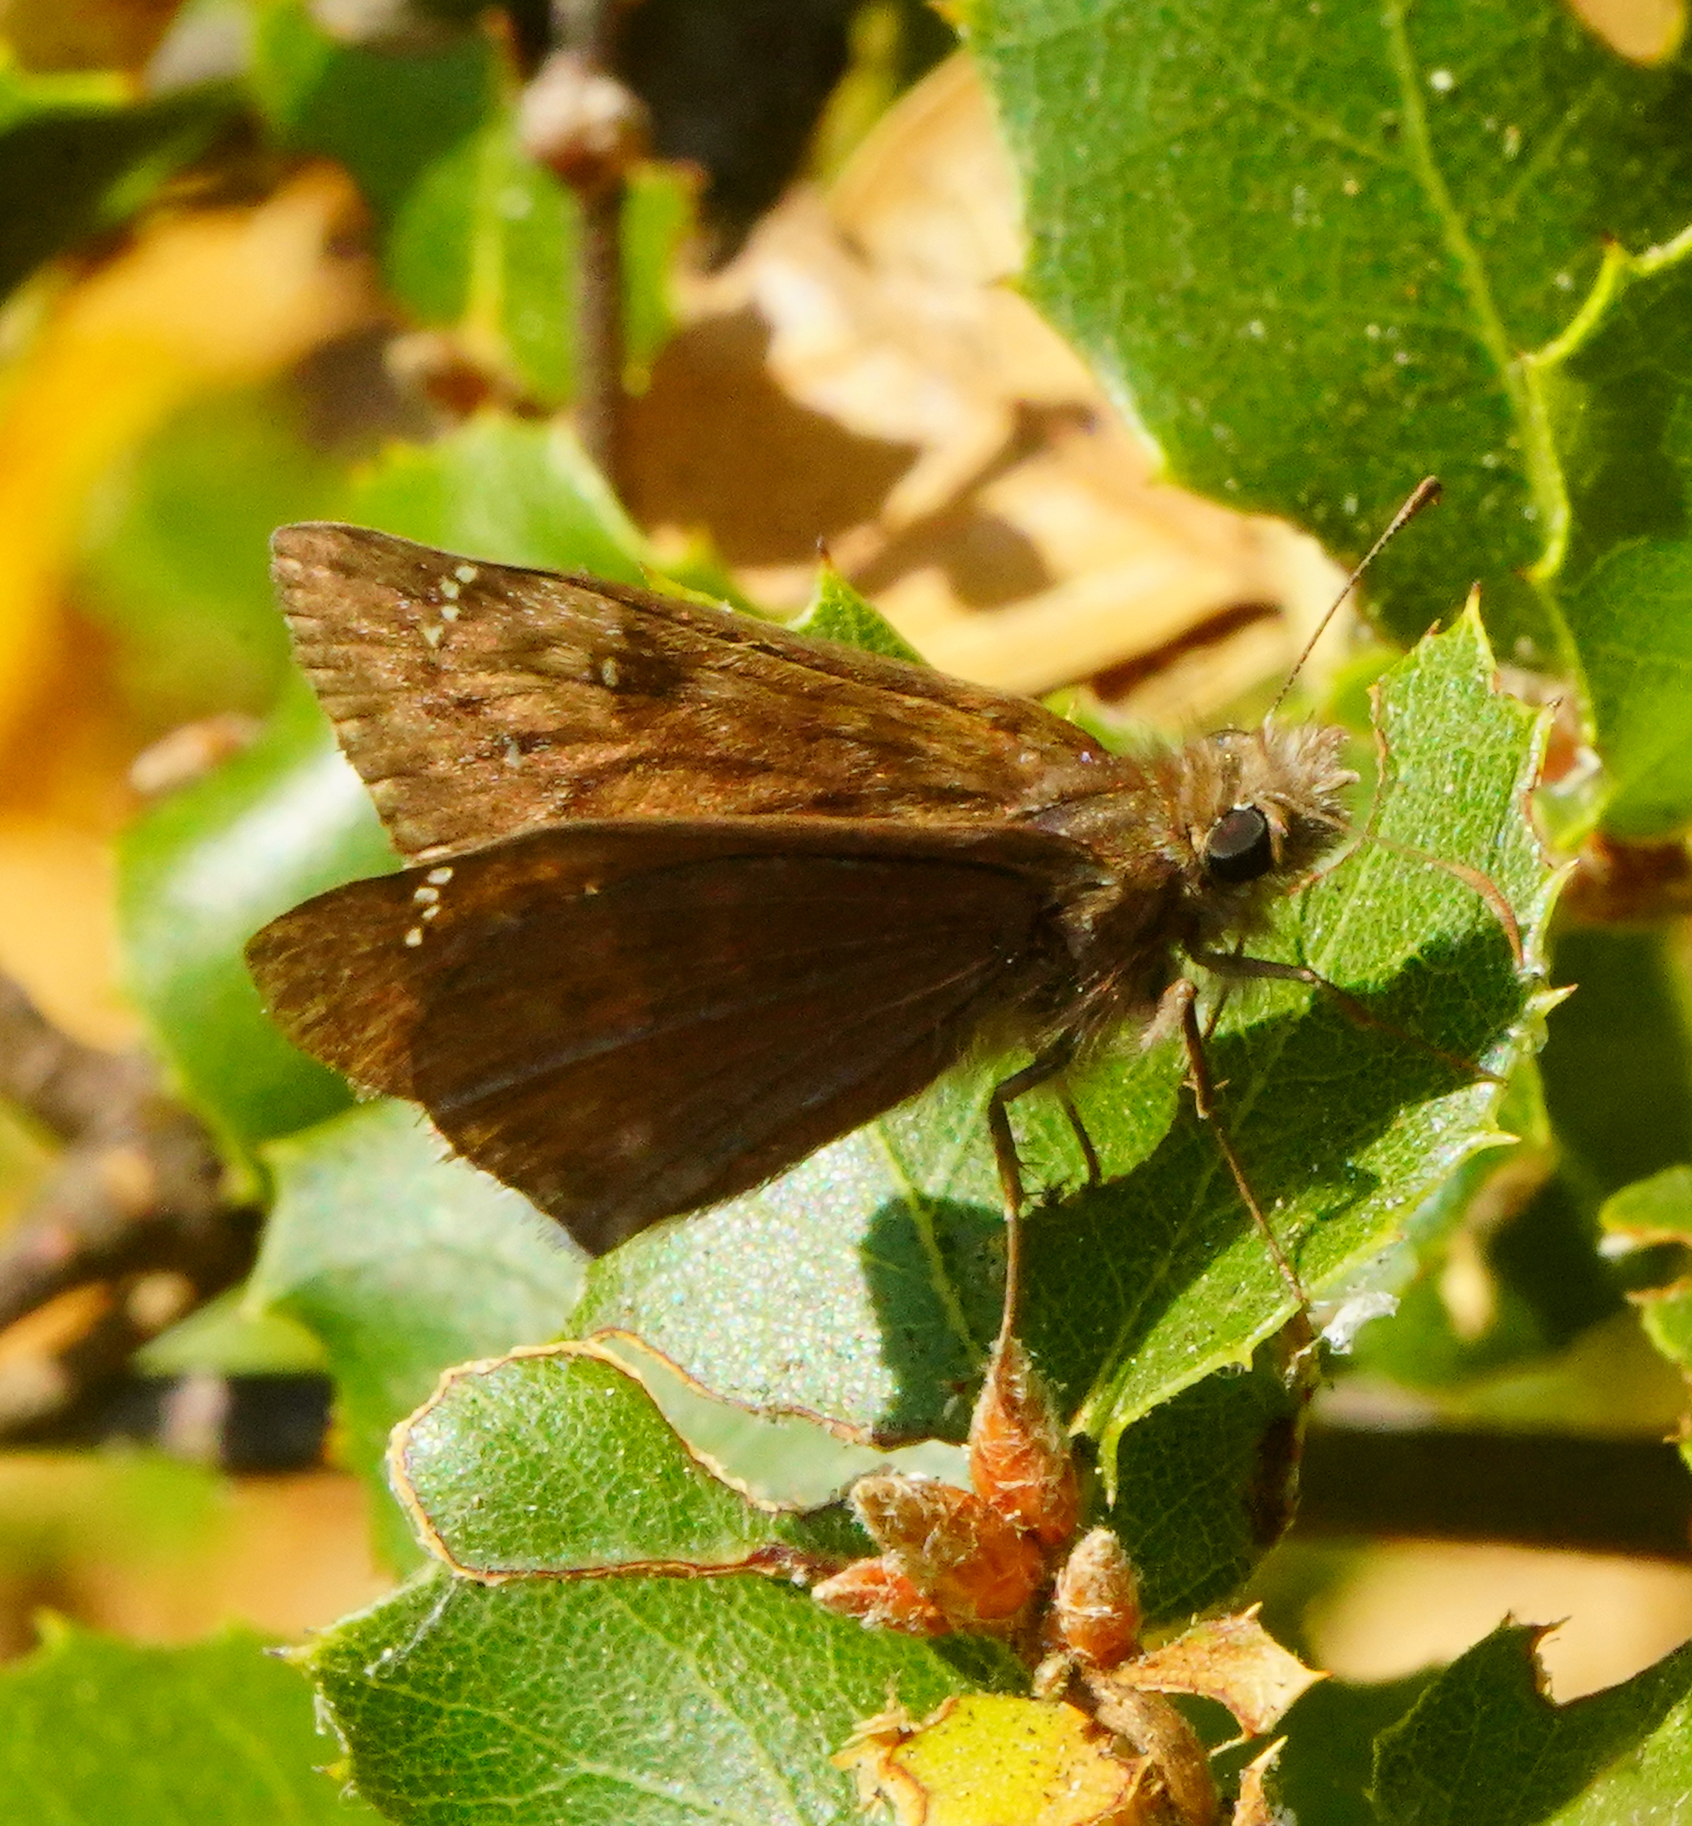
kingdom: Animalia
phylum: Arthropoda
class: Insecta
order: Lepidoptera
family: Hesperiidae
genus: Erynnis
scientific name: Erynnis tristis
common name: Mournful duskywing
